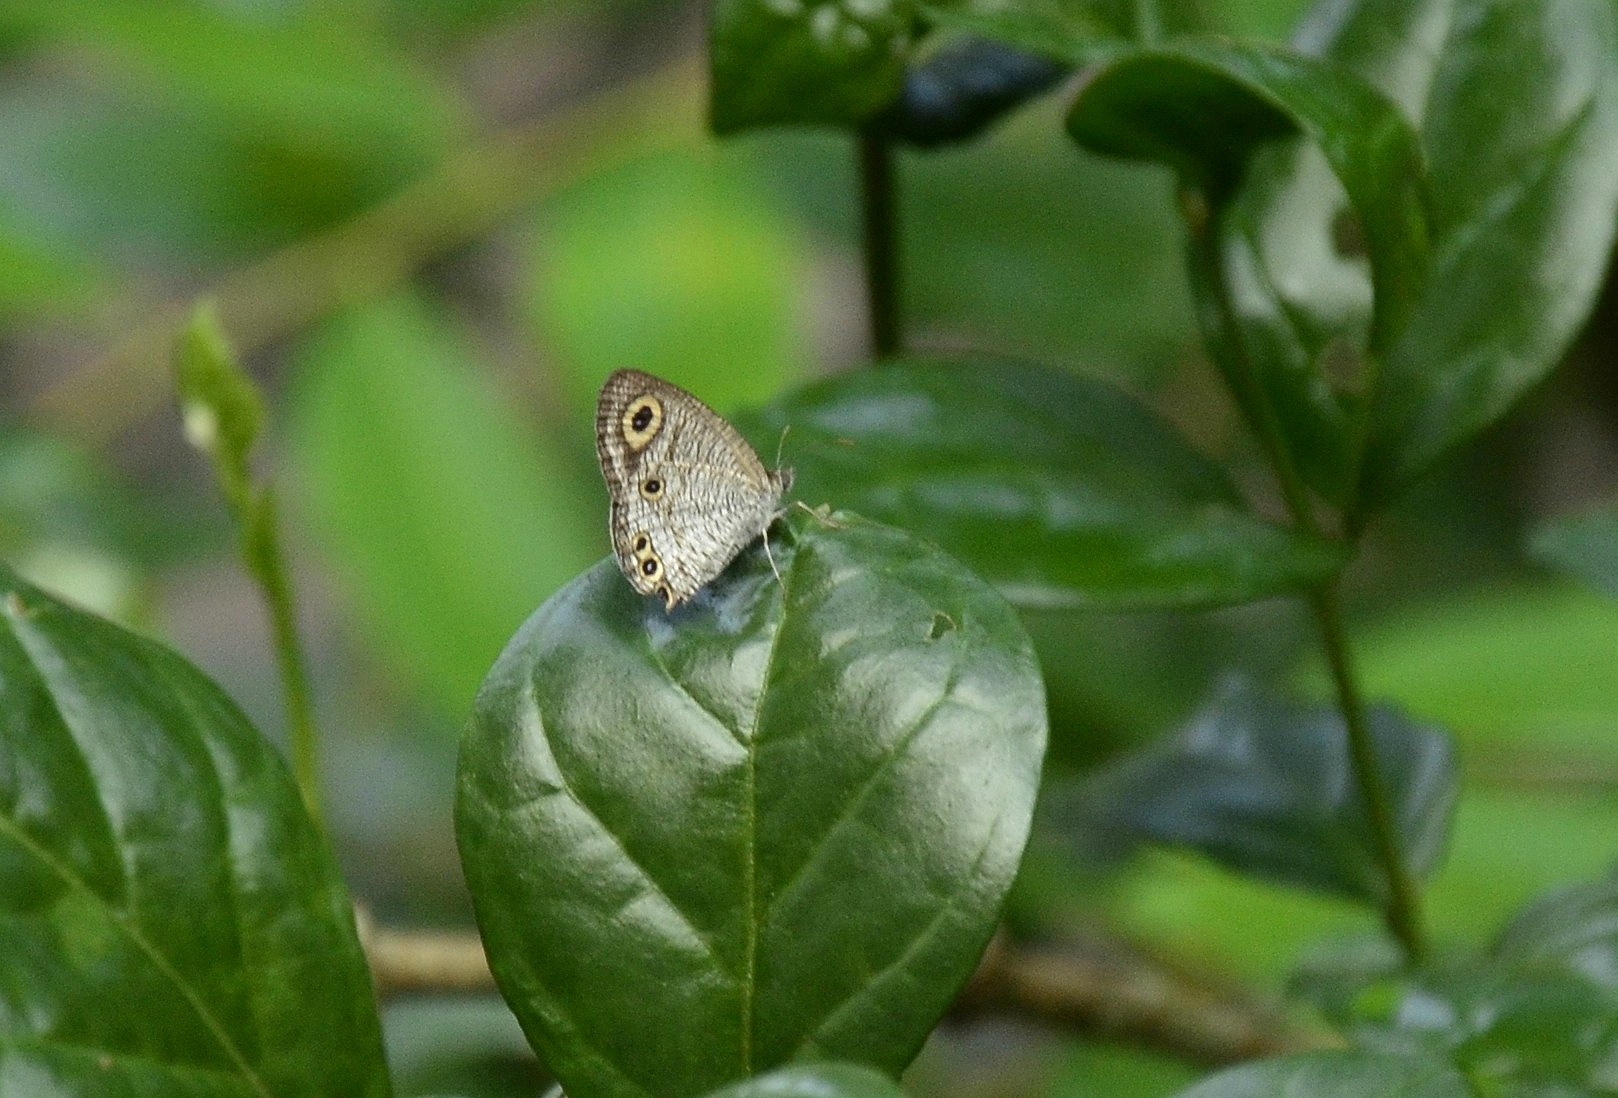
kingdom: Animalia
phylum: Arthropoda
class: Insecta
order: Lepidoptera
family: Nymphalidae
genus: Ypthima
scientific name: Ypthima huebneri
